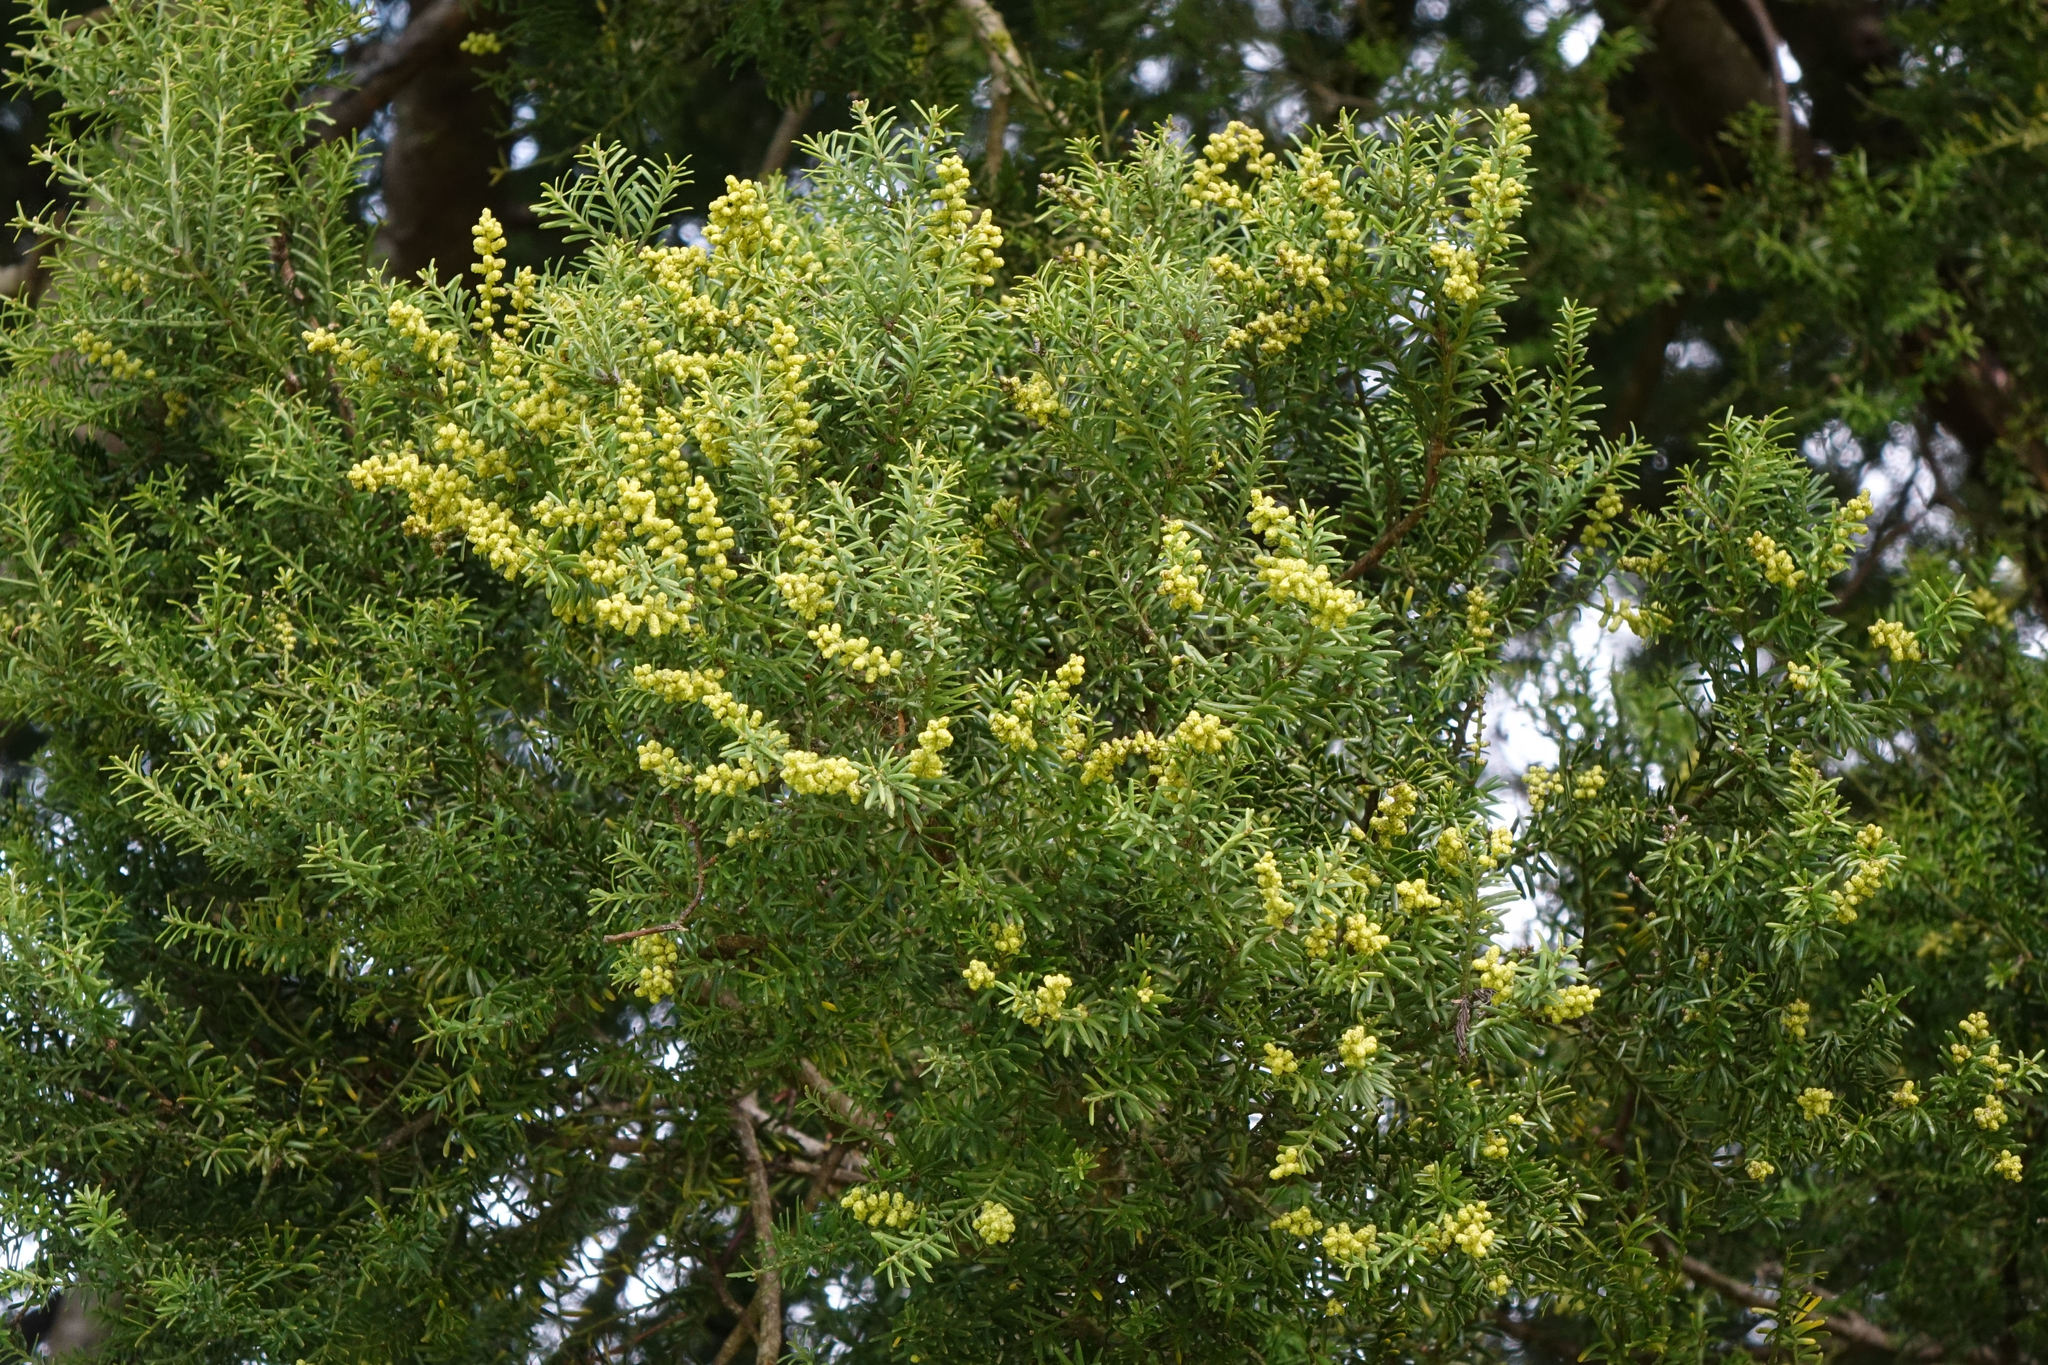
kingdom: Plantae
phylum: Tracheophyta
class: Pinopsida
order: Pinales
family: Podocarpaceae
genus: Prumnopitys
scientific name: Prumnopitys taxifolia
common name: Matai
